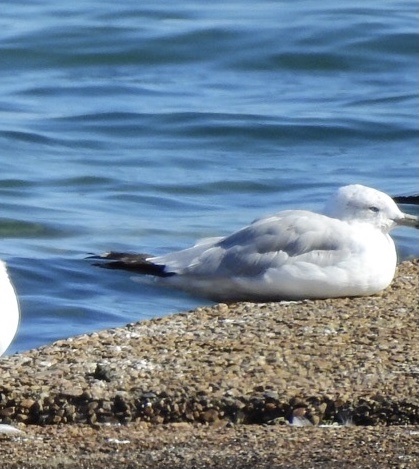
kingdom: Animalia
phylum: Chordata
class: Aves
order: Charadriiformes
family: Laridae
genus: Larus
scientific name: Larus delawarensis
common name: Ring-billed gull
